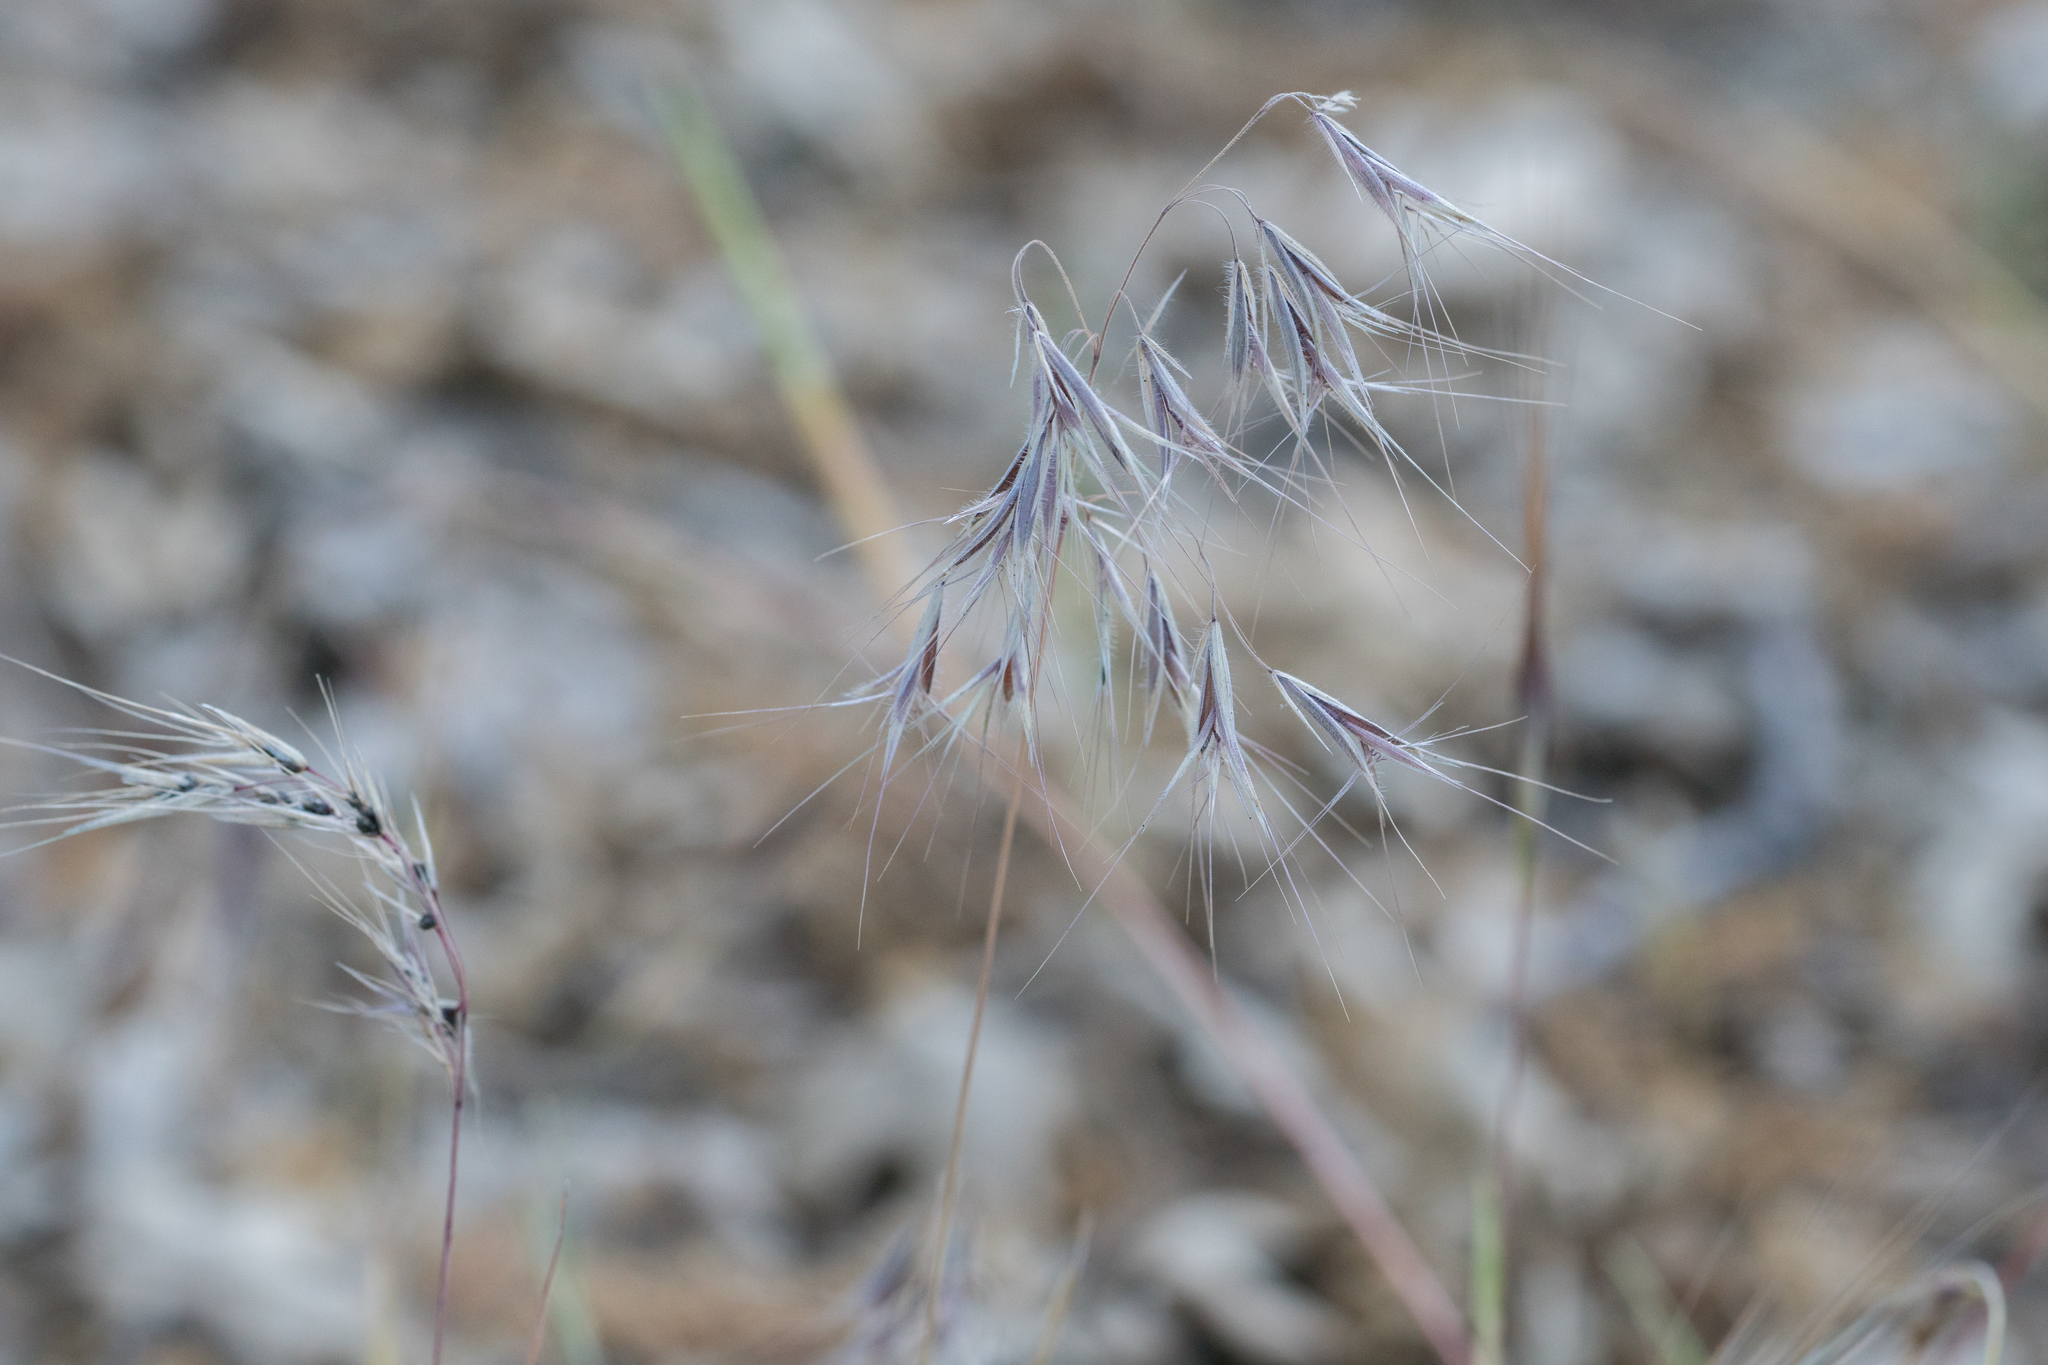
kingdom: Plantae
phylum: Tracheophyta
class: Liliopsida
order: Poales
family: Poaceae
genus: Bromus
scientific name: Bromus tectorum
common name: Cheatgrass
